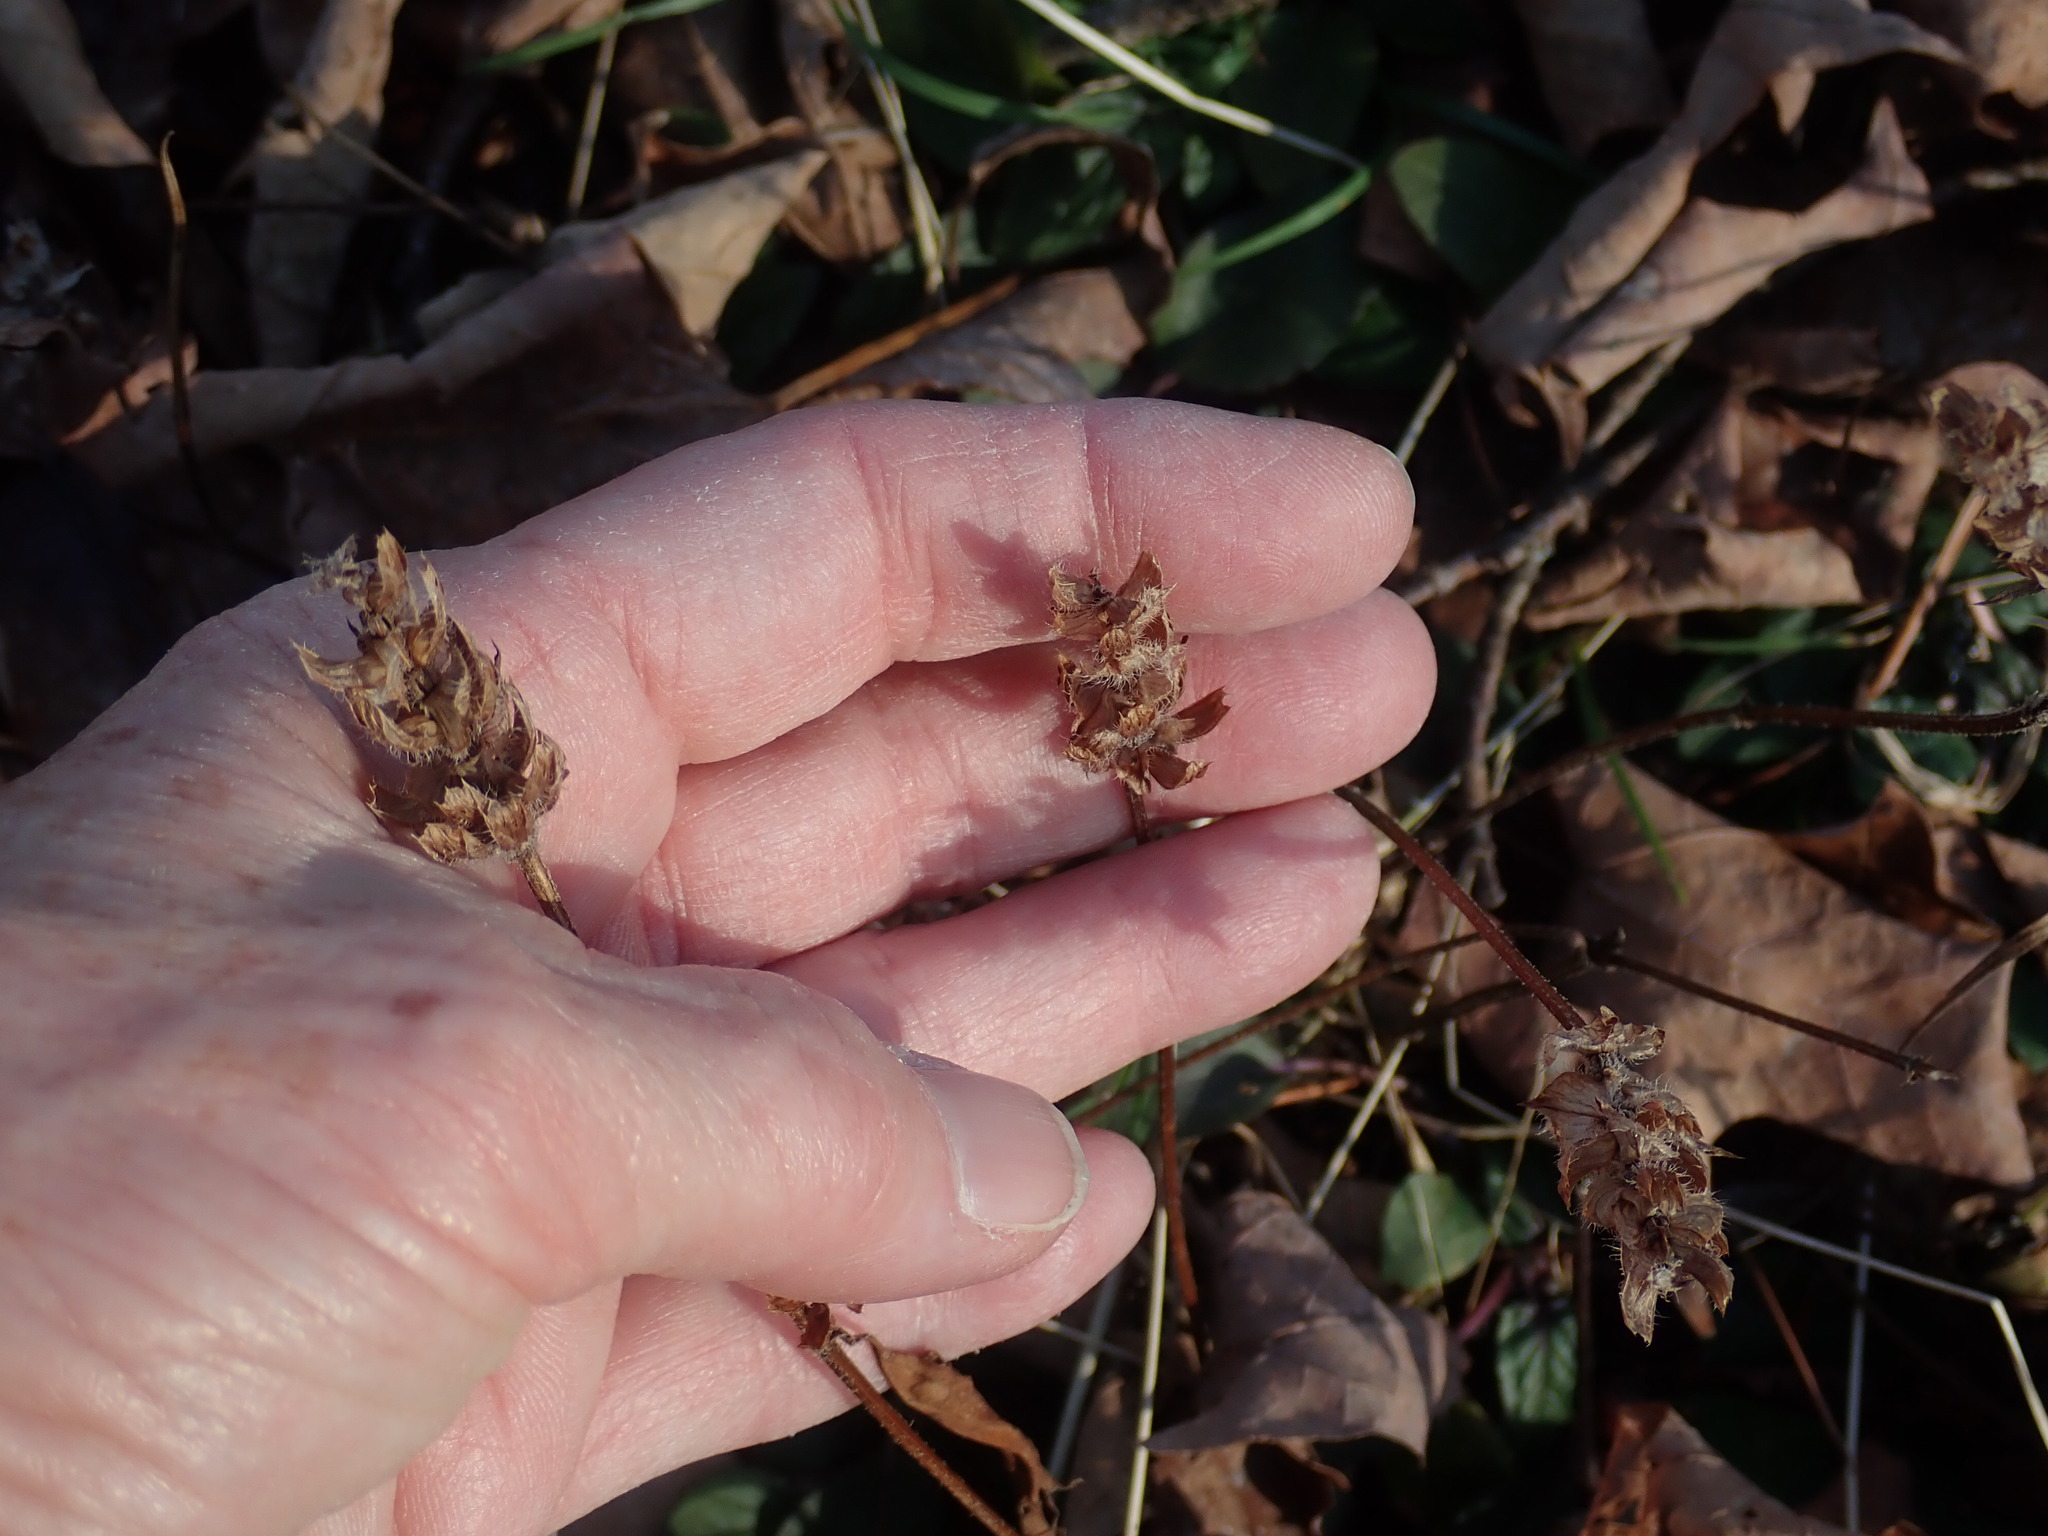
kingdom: Plantae
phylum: Tracheophyta
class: Magnoliopsida
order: Lamiales
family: Lamiaceae
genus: Prunella
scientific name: Prunella vulgaris
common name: Heal-all
